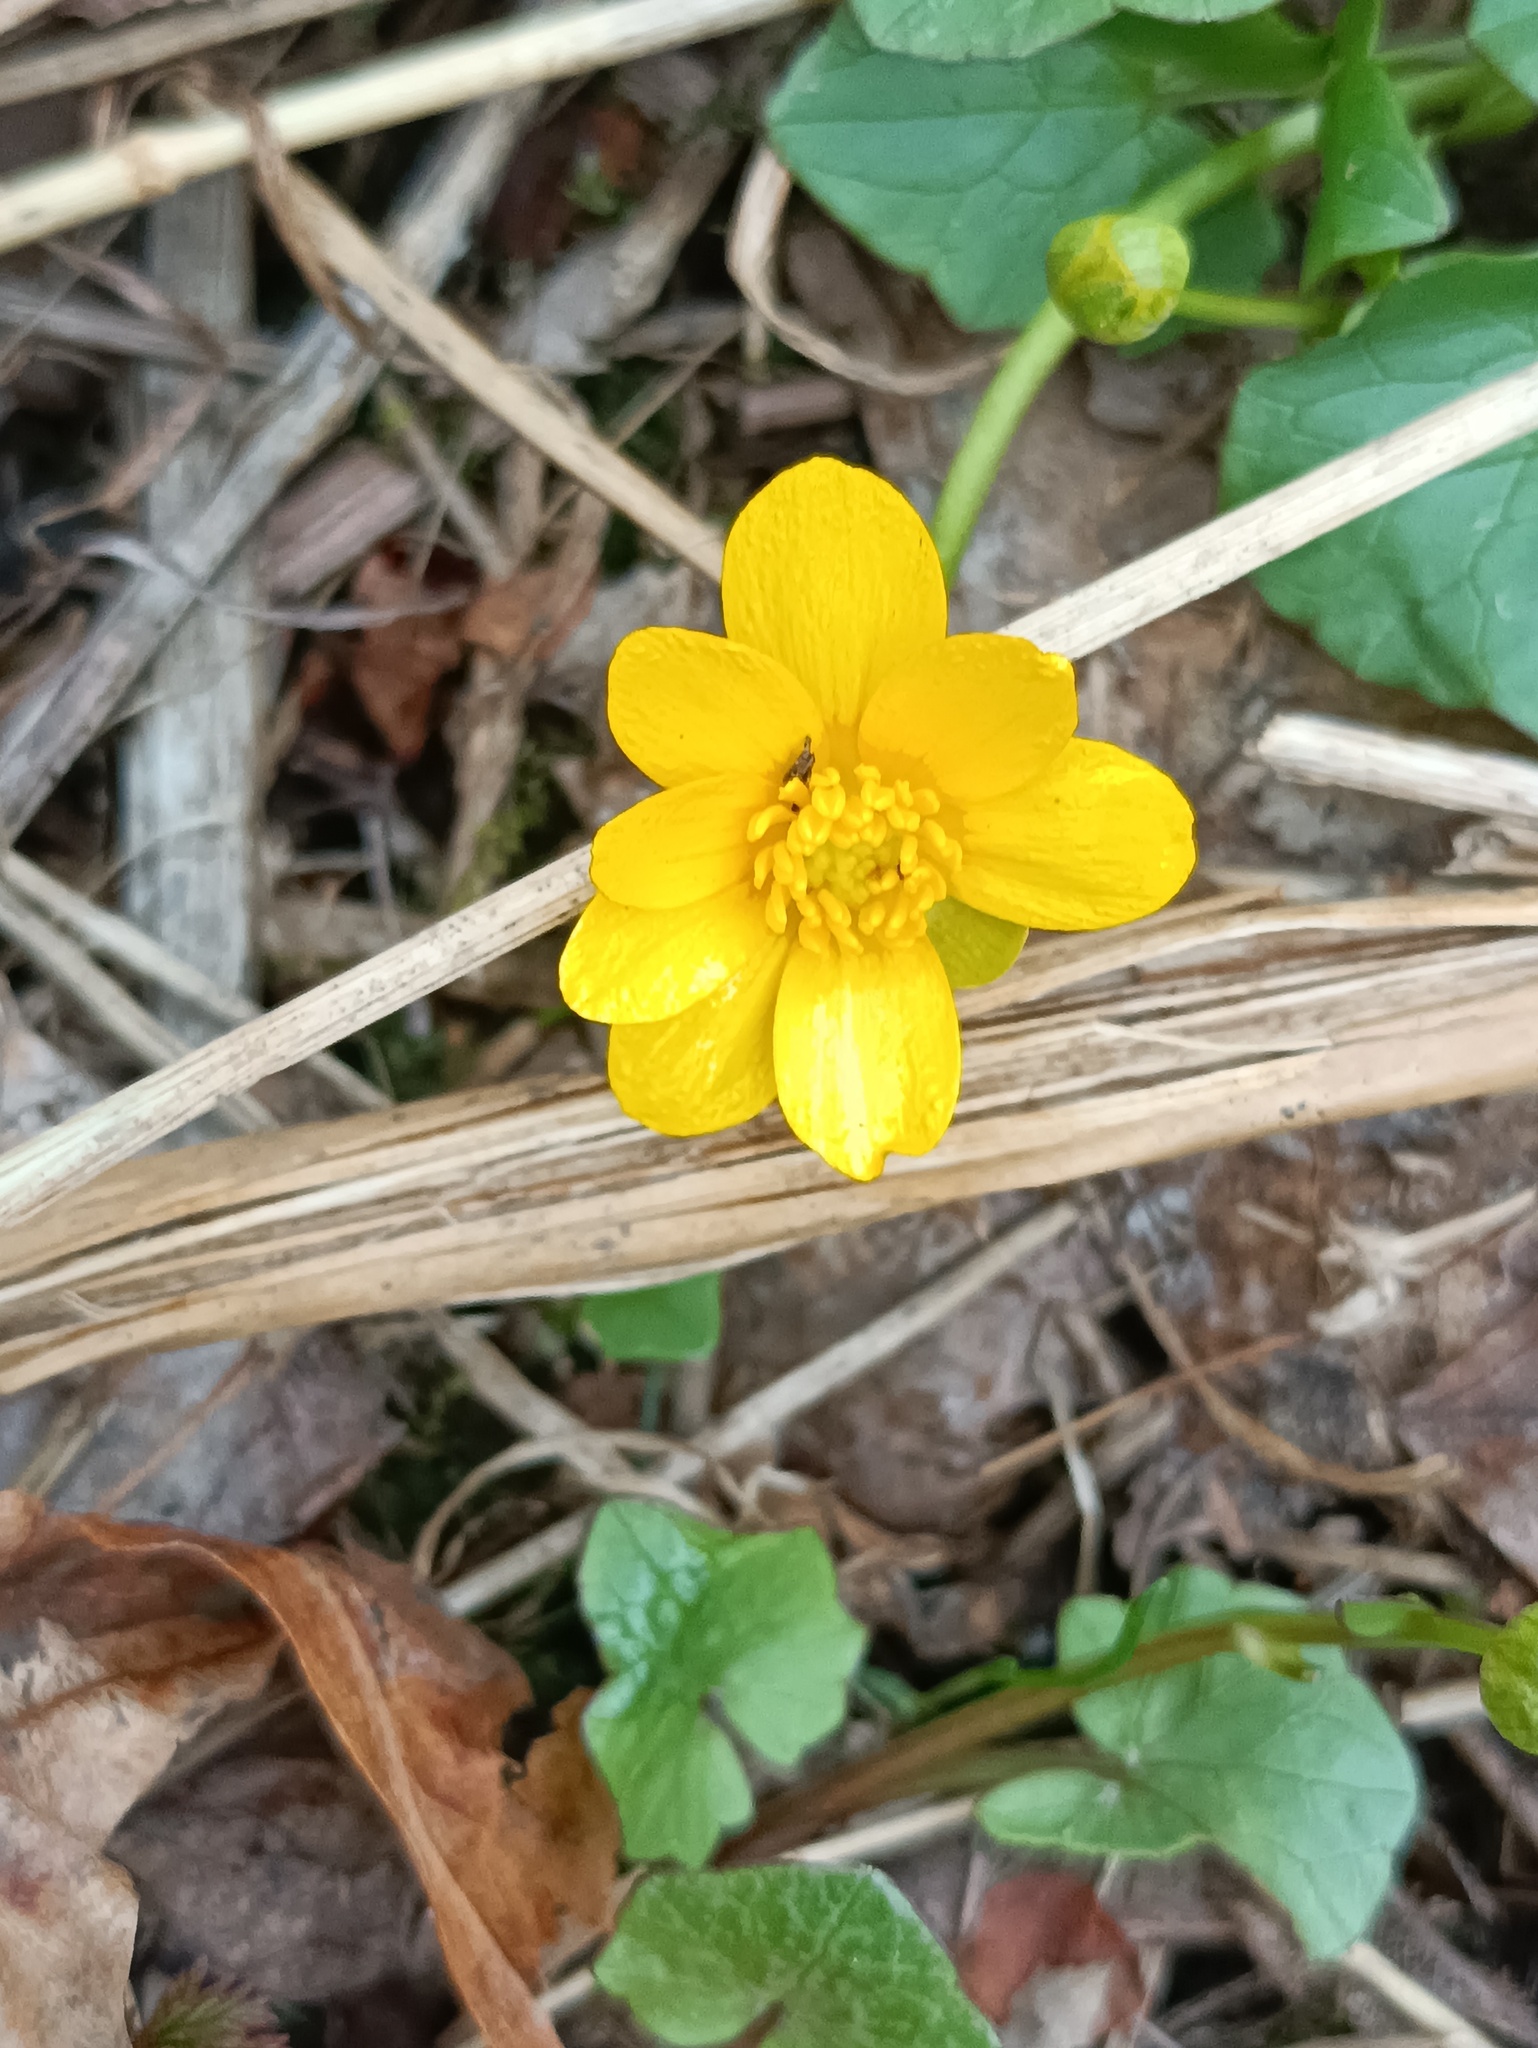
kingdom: Plantae
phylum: Tracheophyta
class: Magnoliopsida
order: Ranunculales
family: Ranunculaceae
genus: Ficaria
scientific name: Ficaria verna
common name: Lesser celandine
